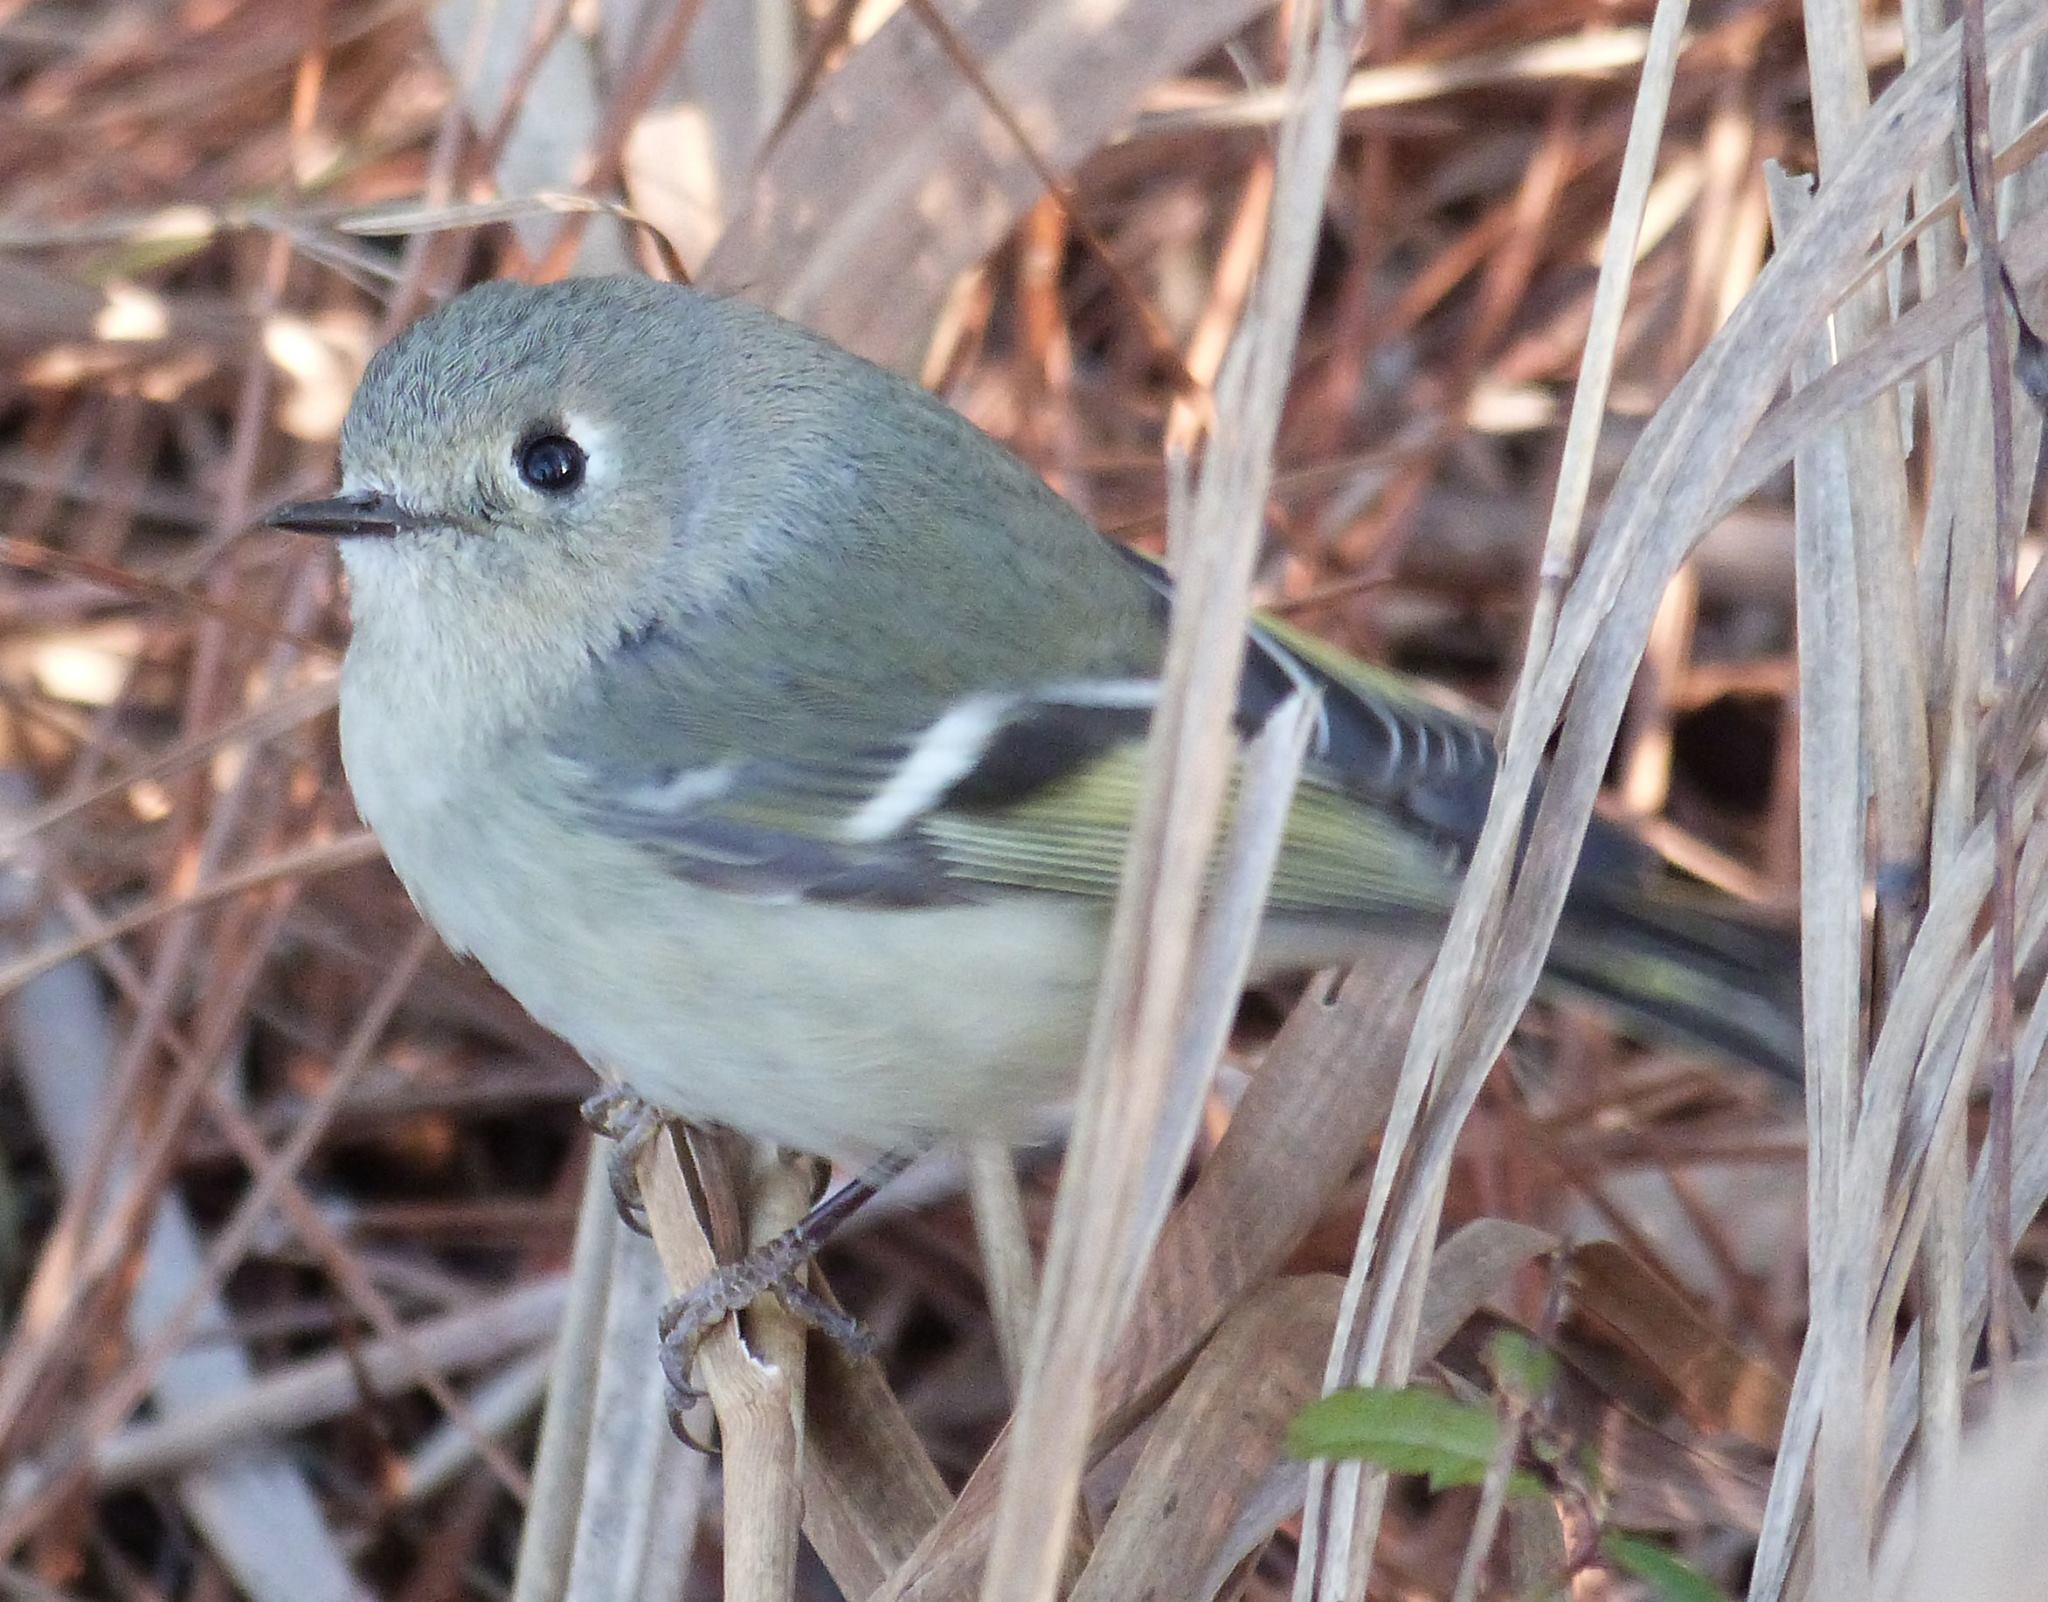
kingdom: Animalia
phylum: Chordata
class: Aves
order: Passeriformes
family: Regulidae
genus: Regulus
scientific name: Regulus calendula
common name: Ruby-crowned kinglet
